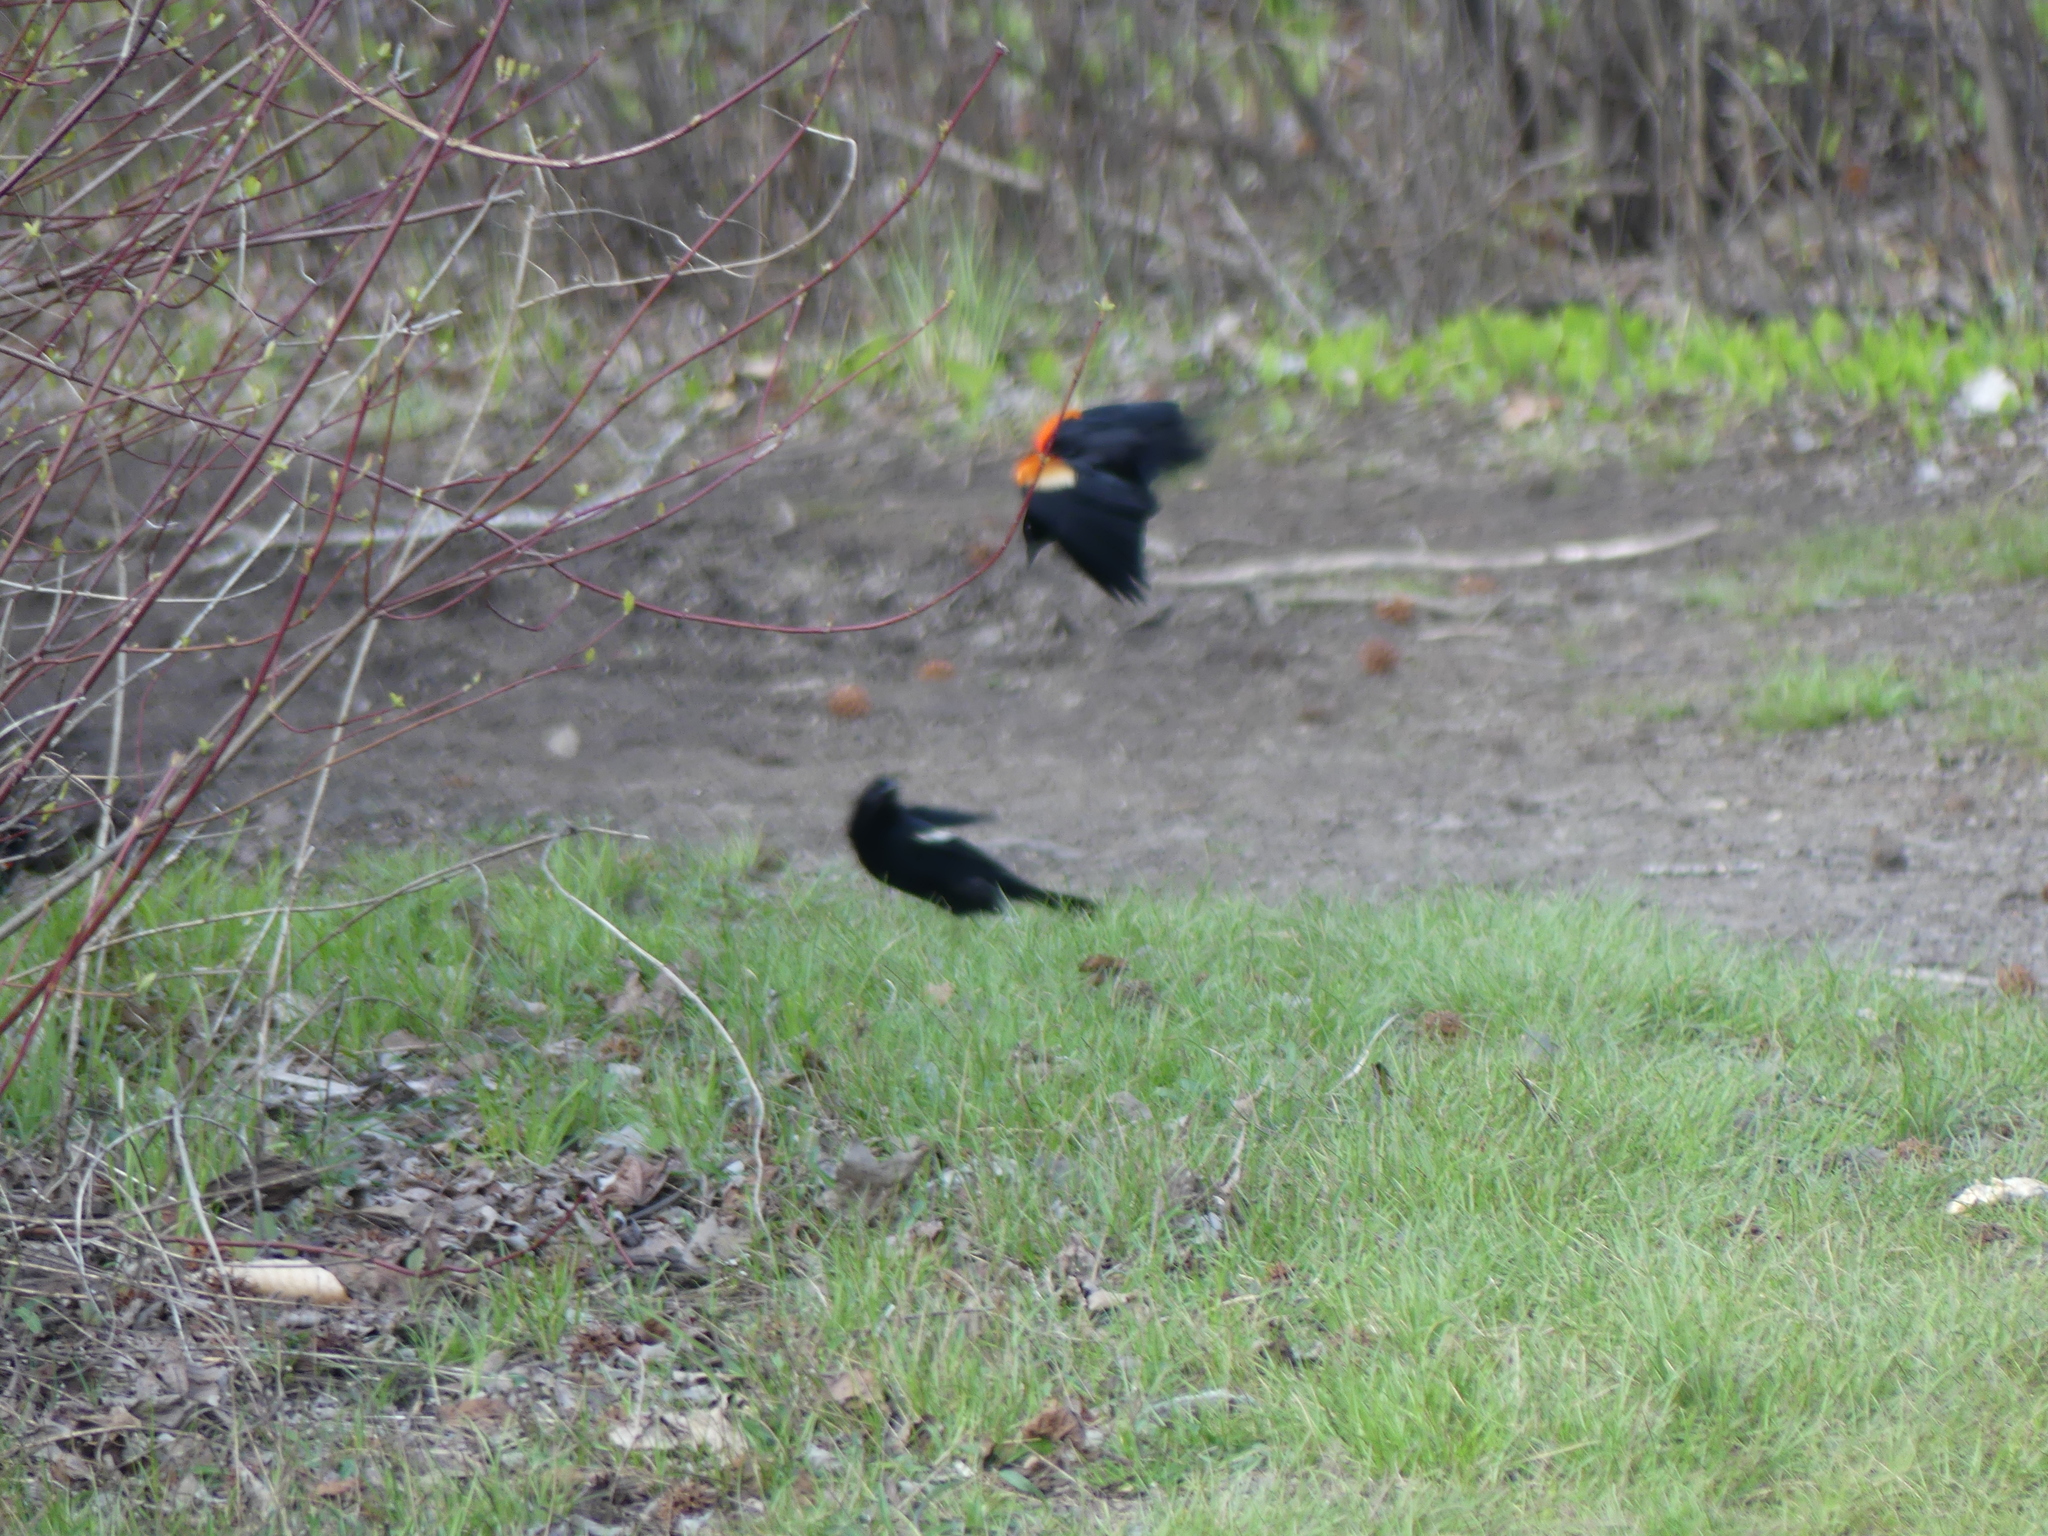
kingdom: Animalia
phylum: Chordata
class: Aves
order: Passeriformes
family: Icteridae
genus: Agelaius
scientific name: Agelaius phoeniceus
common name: Red-winged blackbird
